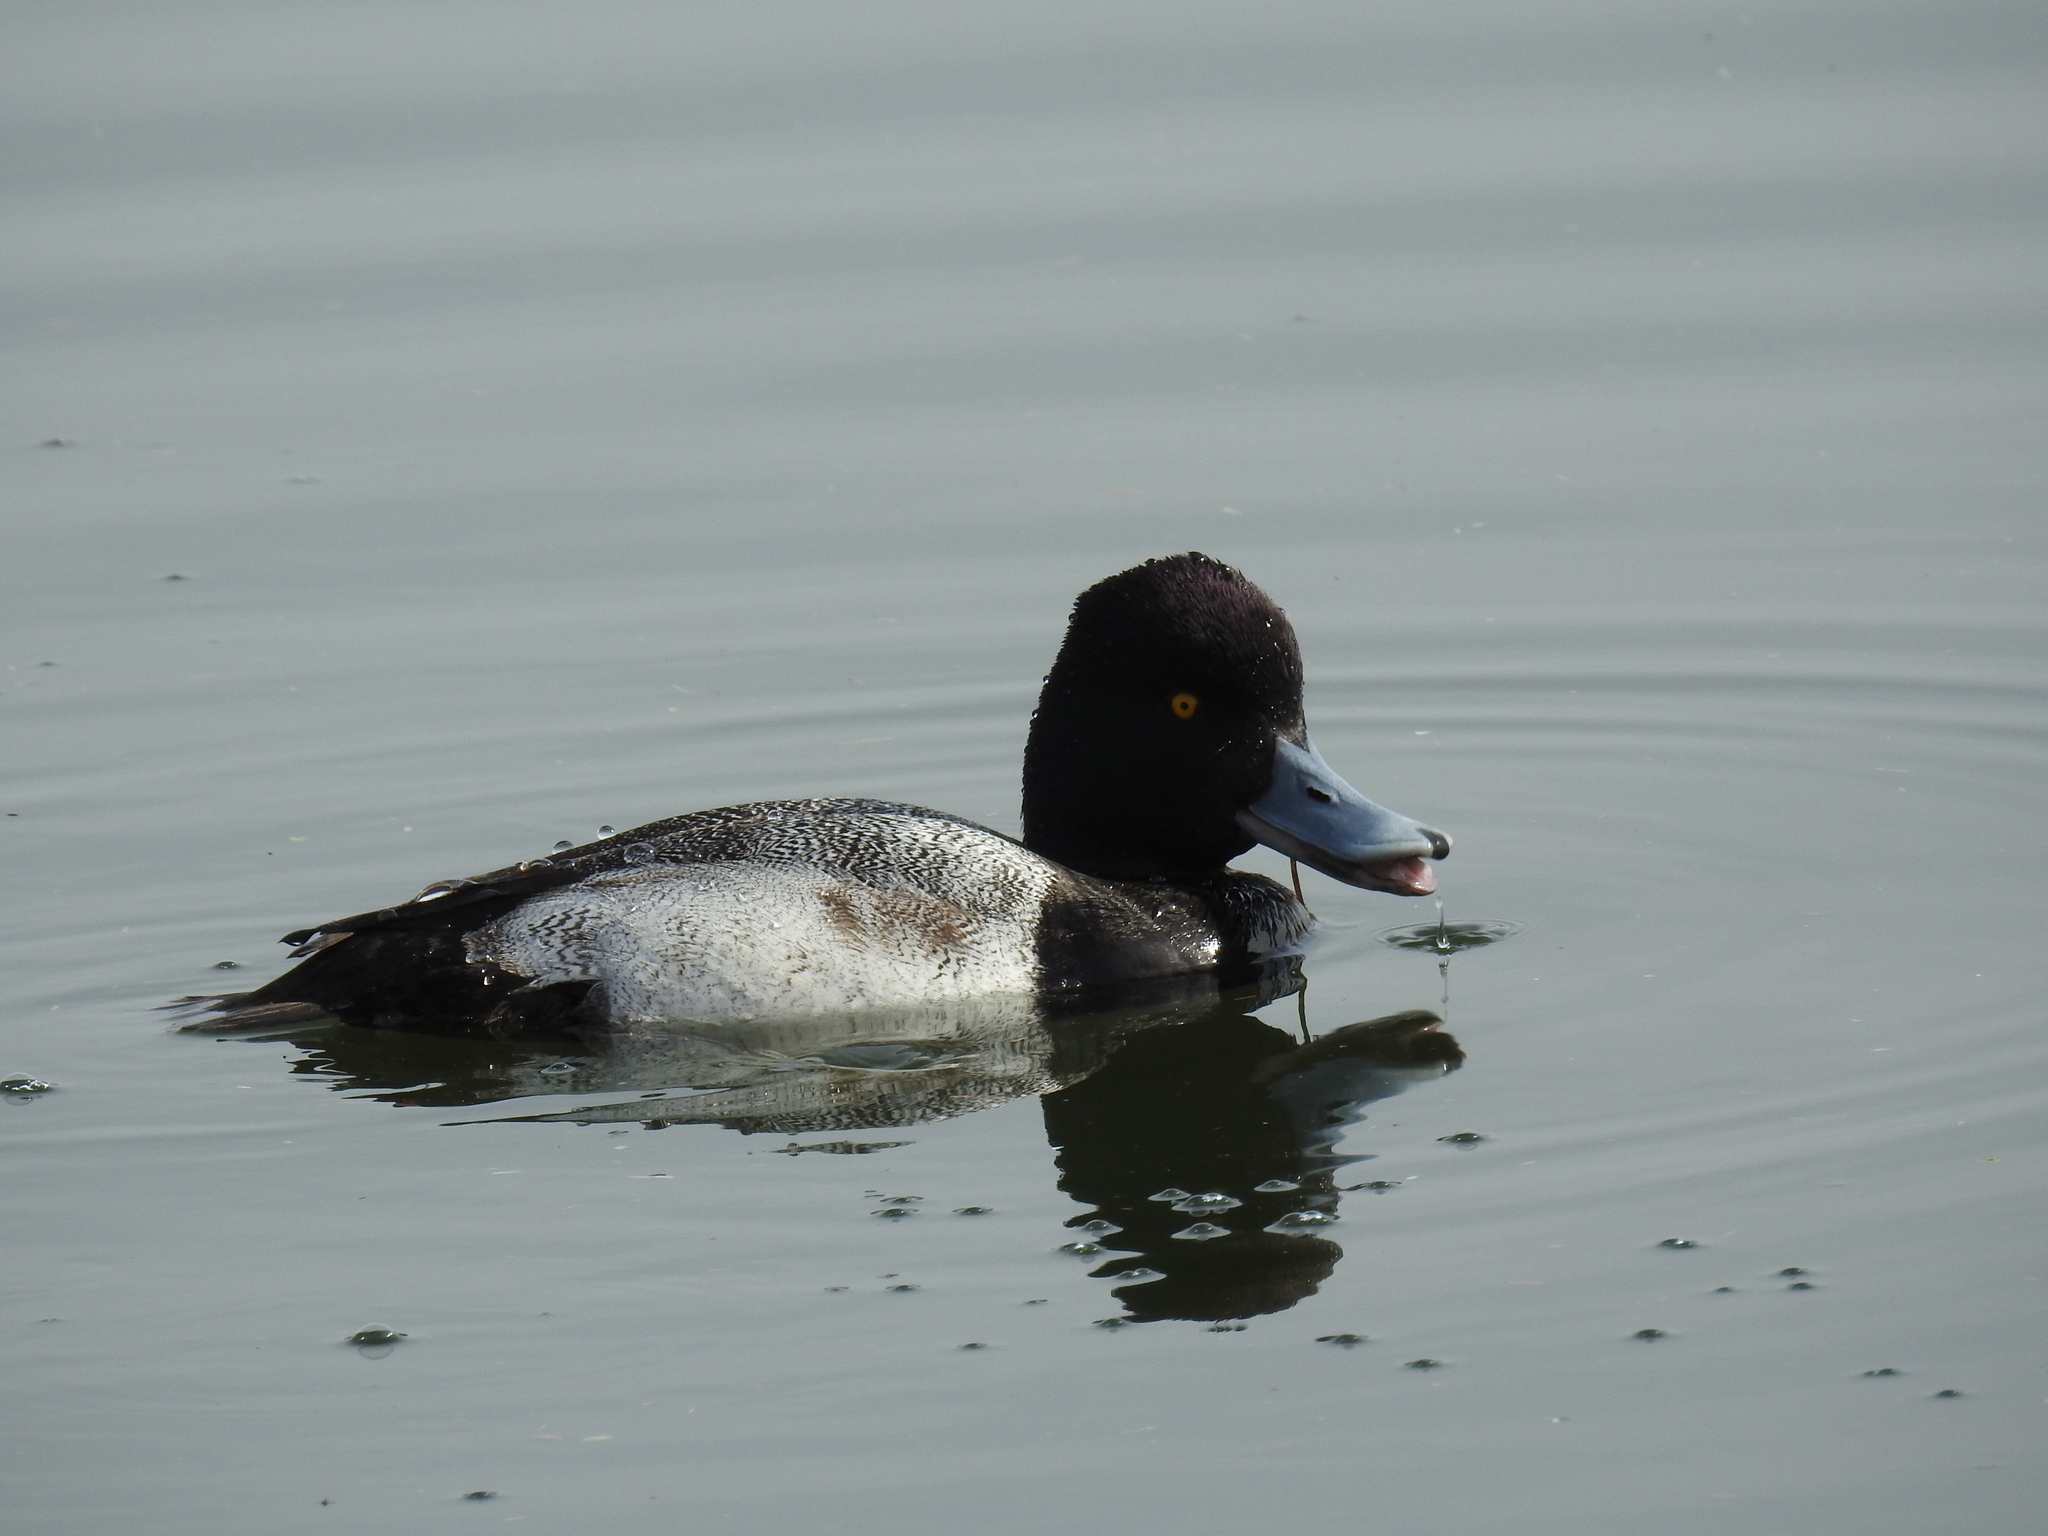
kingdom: Animalia
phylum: Chordata
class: Aves
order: Anseriformes
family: Anatidae
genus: Aythya
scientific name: Aythya affinis
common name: Lesser scaup
